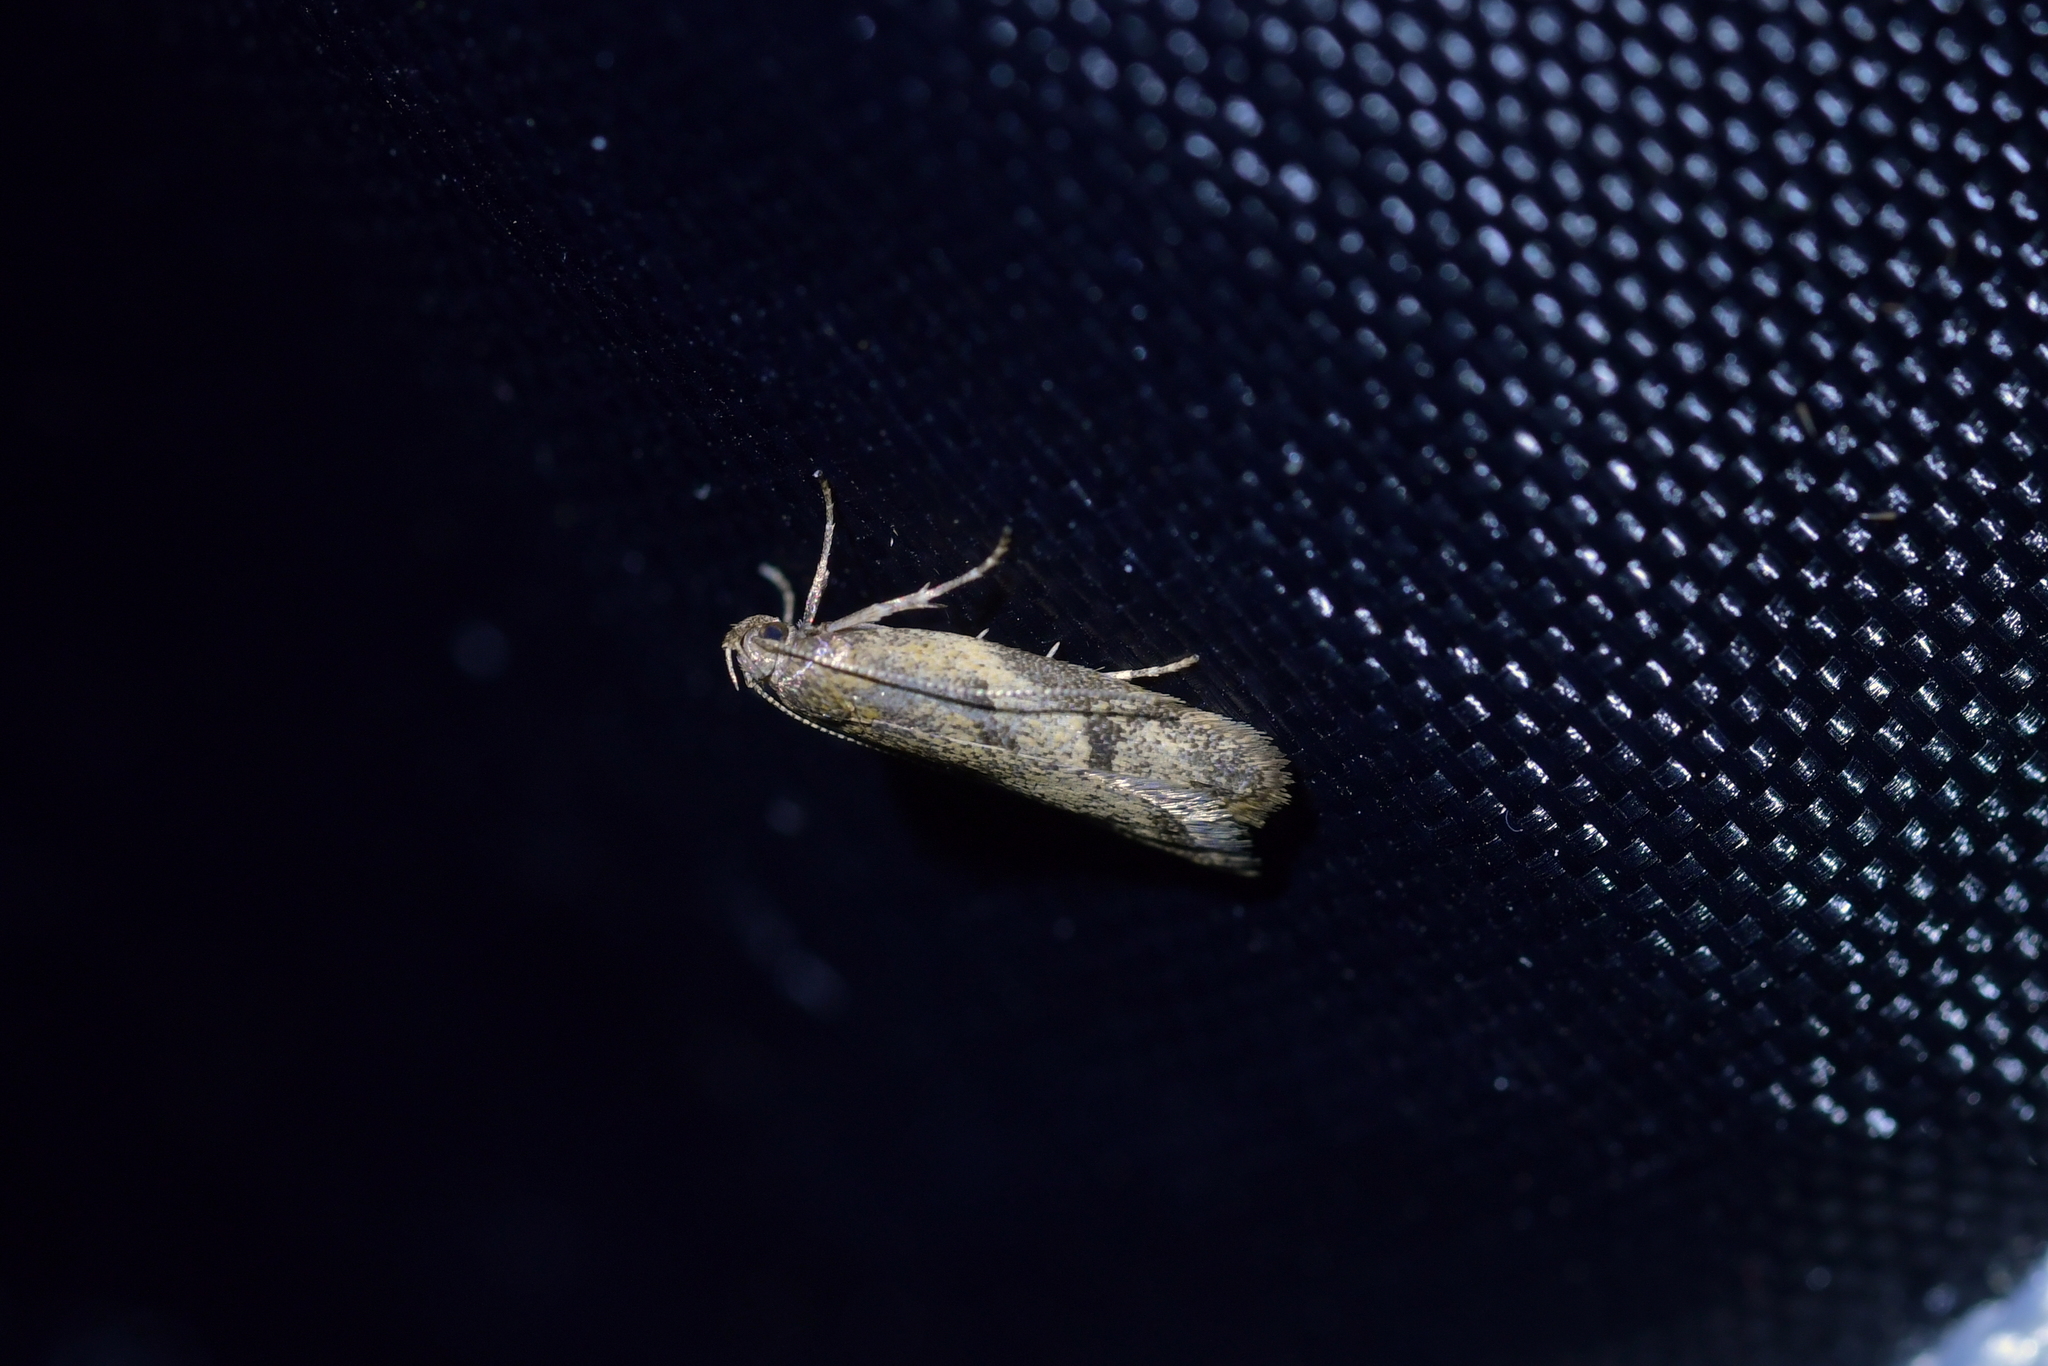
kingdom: Animalia
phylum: Arthropoda
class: Insecta
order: Lepidoptera
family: Oecophoridae
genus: Gymnobathra
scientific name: Gymnobathra tholodella
